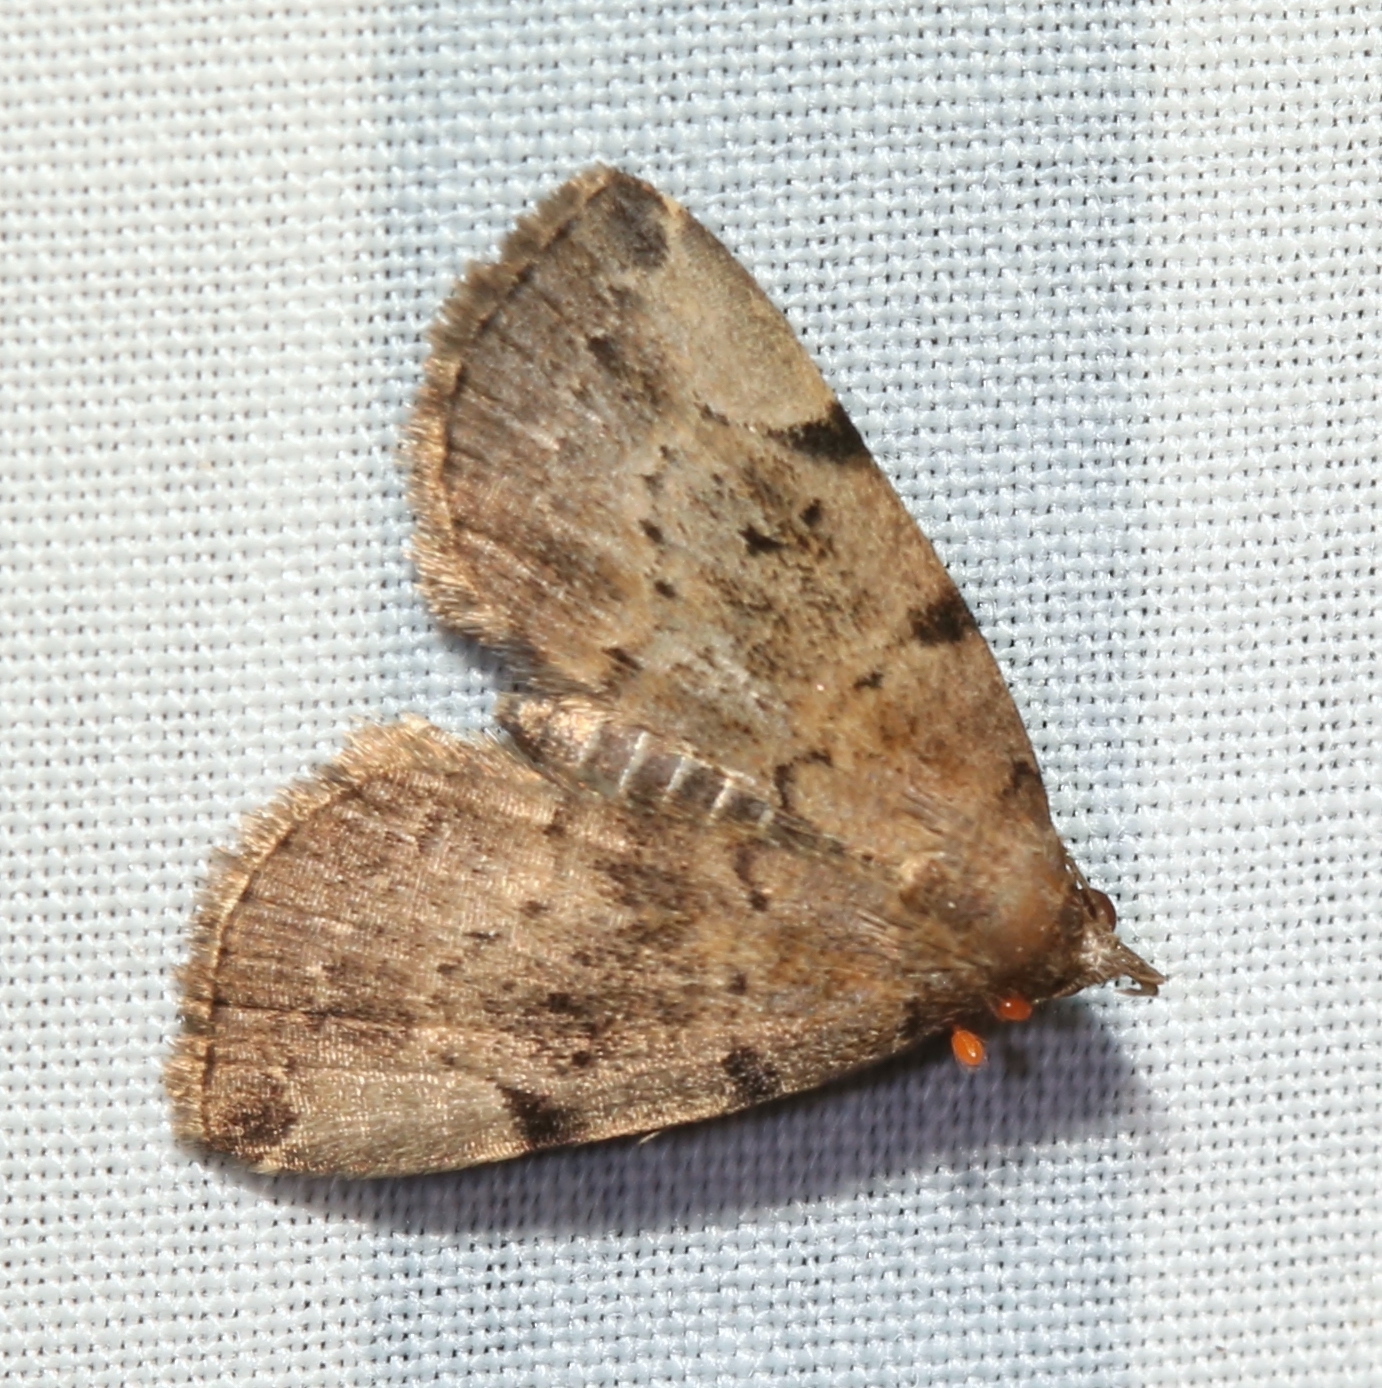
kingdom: Animalia
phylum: Arthropoda
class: Insecta
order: Lepidoptera
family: Erebidae
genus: Zanclognatha
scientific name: Zanclognatha lituralis
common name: Lettered fan-foot
